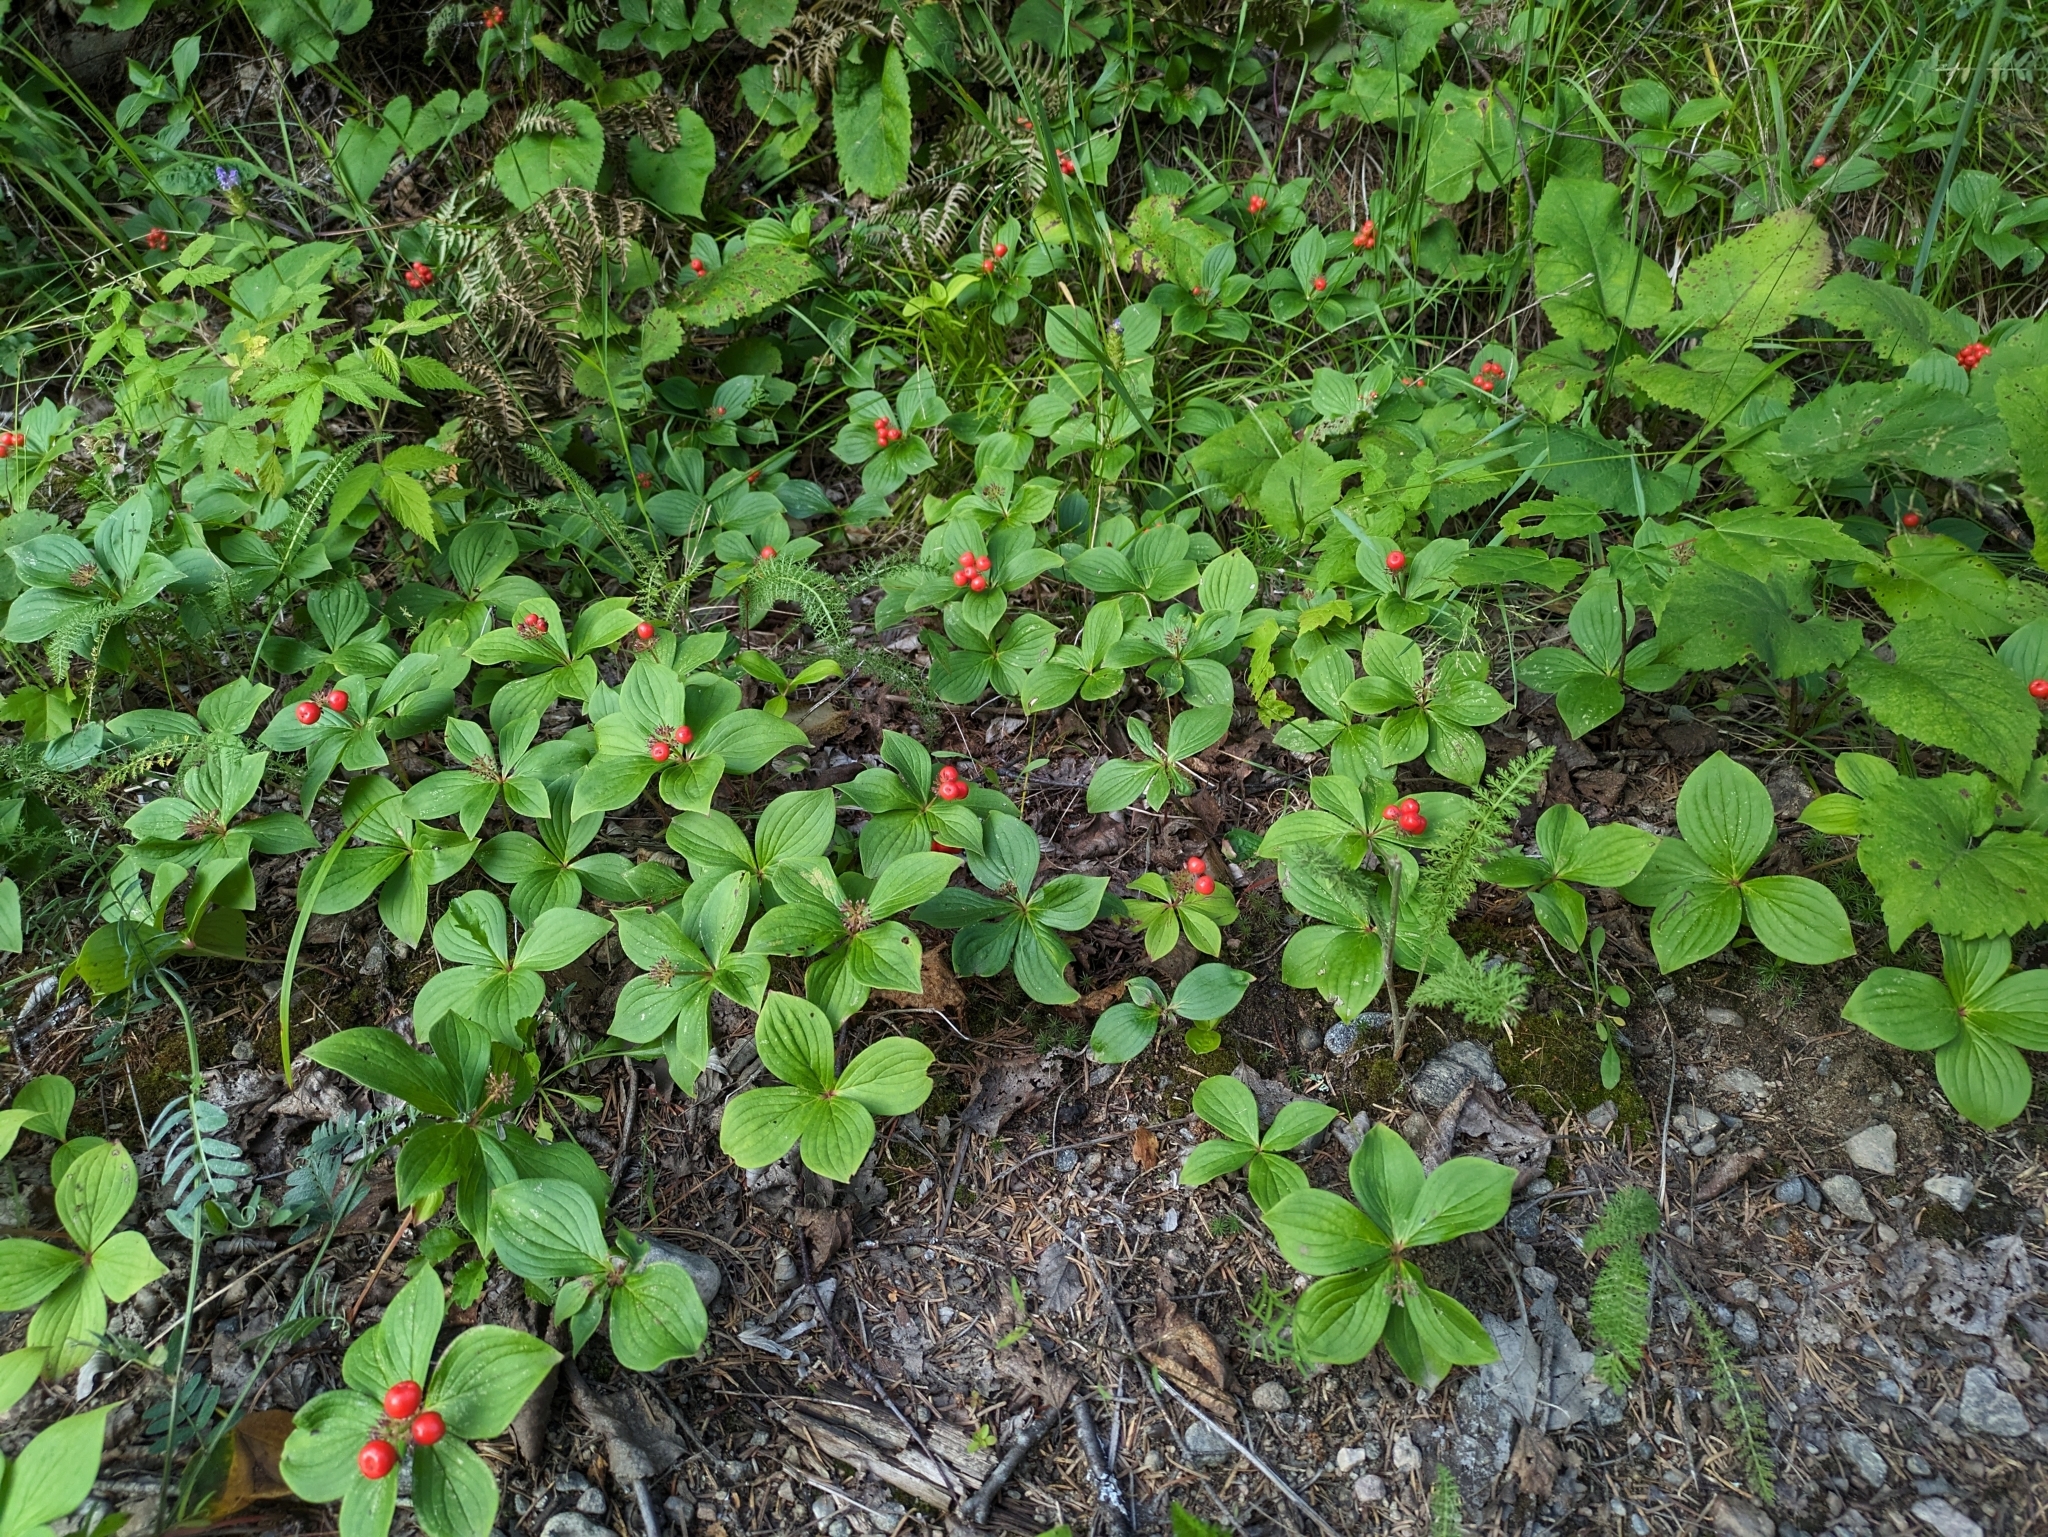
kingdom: Plantae
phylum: Tracheophyta
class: Magnoliopsida
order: Cornales
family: Cornaceae
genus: Cornus
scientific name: Cornus canadensis
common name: Creeping dogwood
